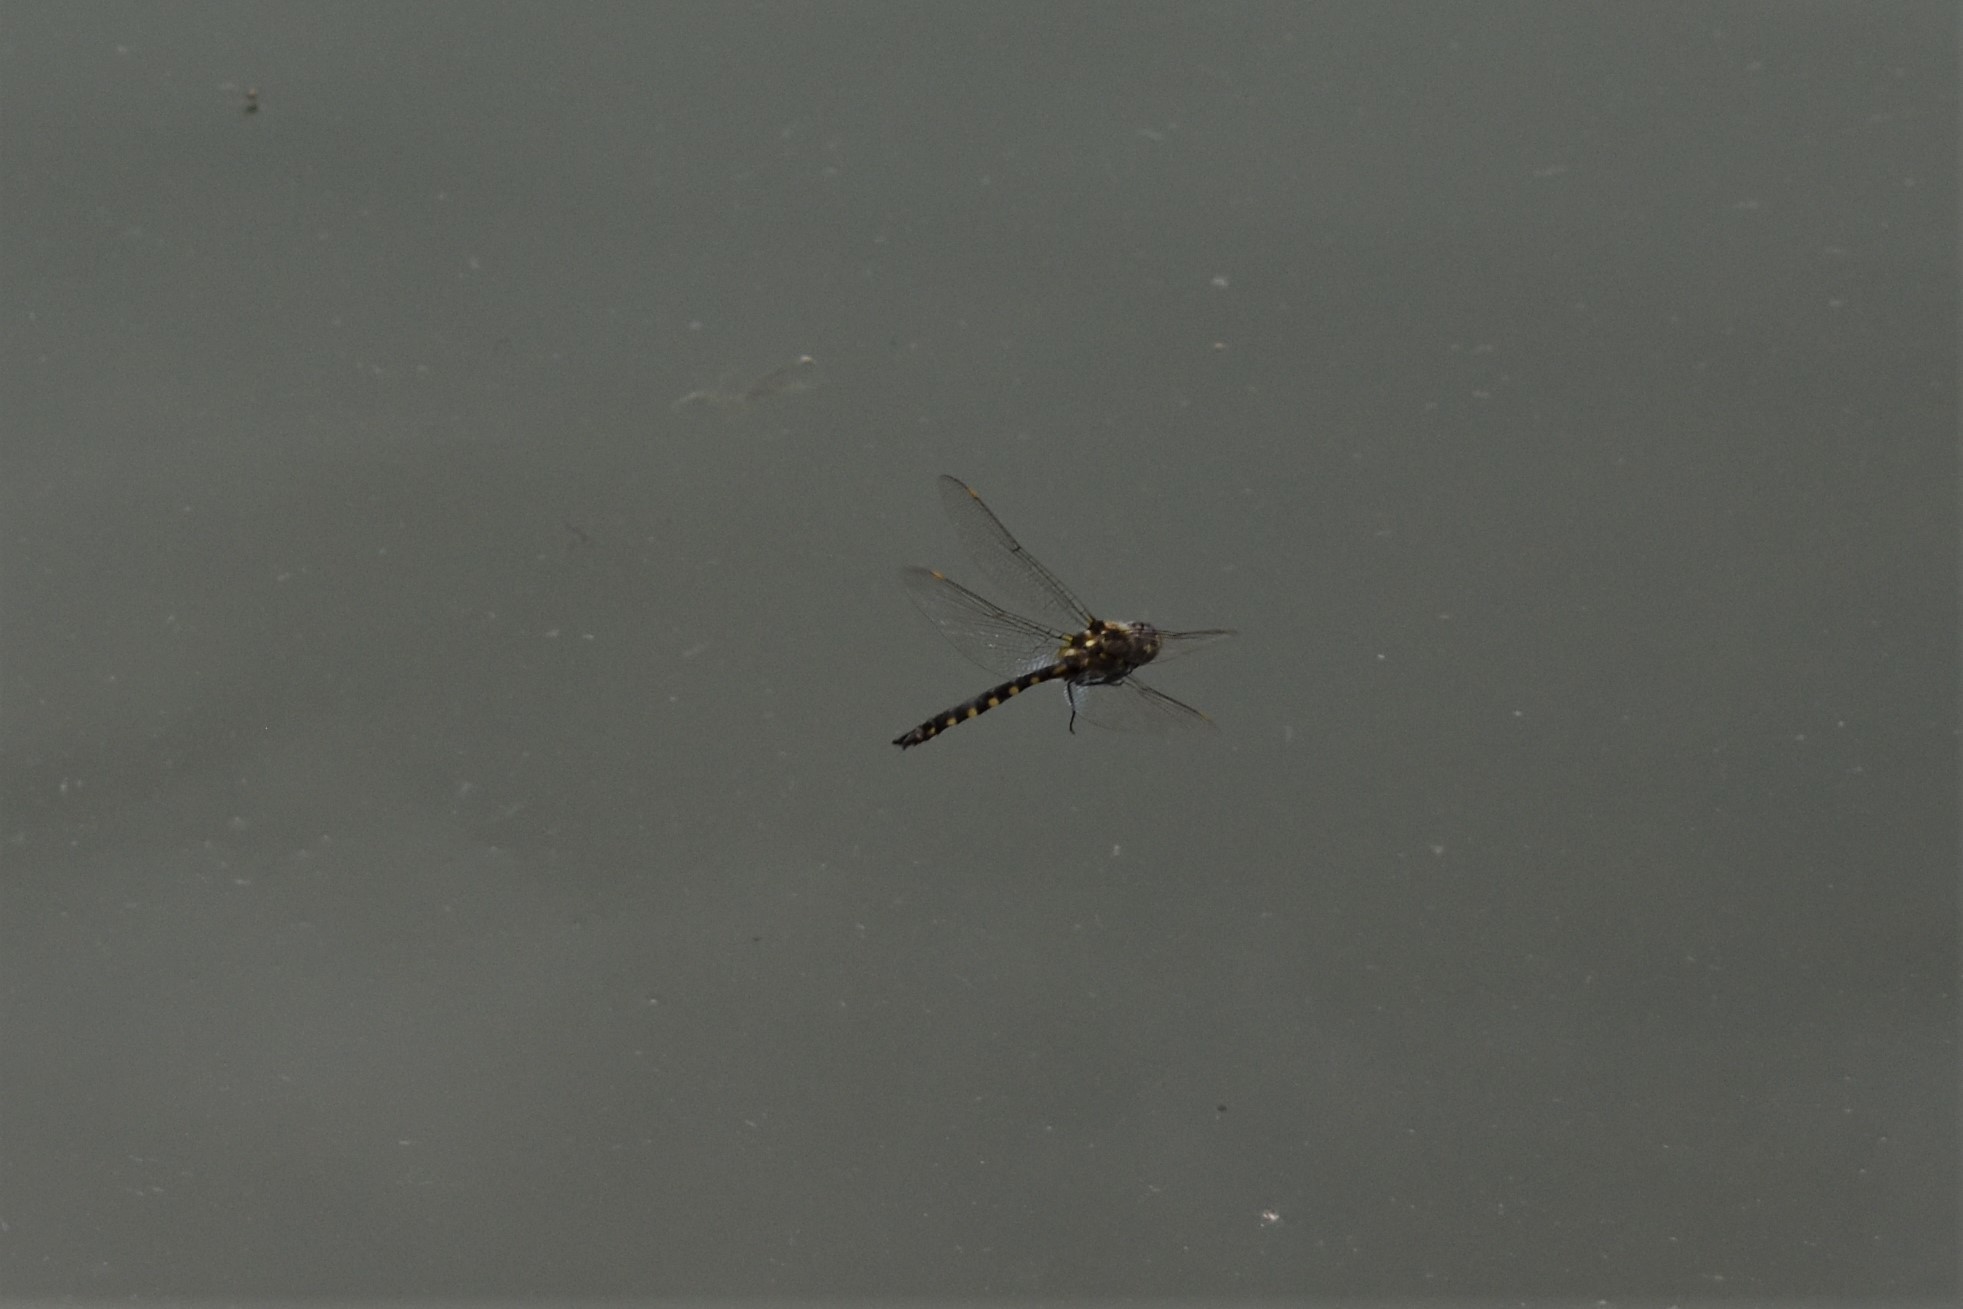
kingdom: Animalia
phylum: Arthropoda
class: Insecta
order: Odonata
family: Corduliidae
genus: Procordulia
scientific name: Procordulia grayi
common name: Yellow spotted dragonfly
